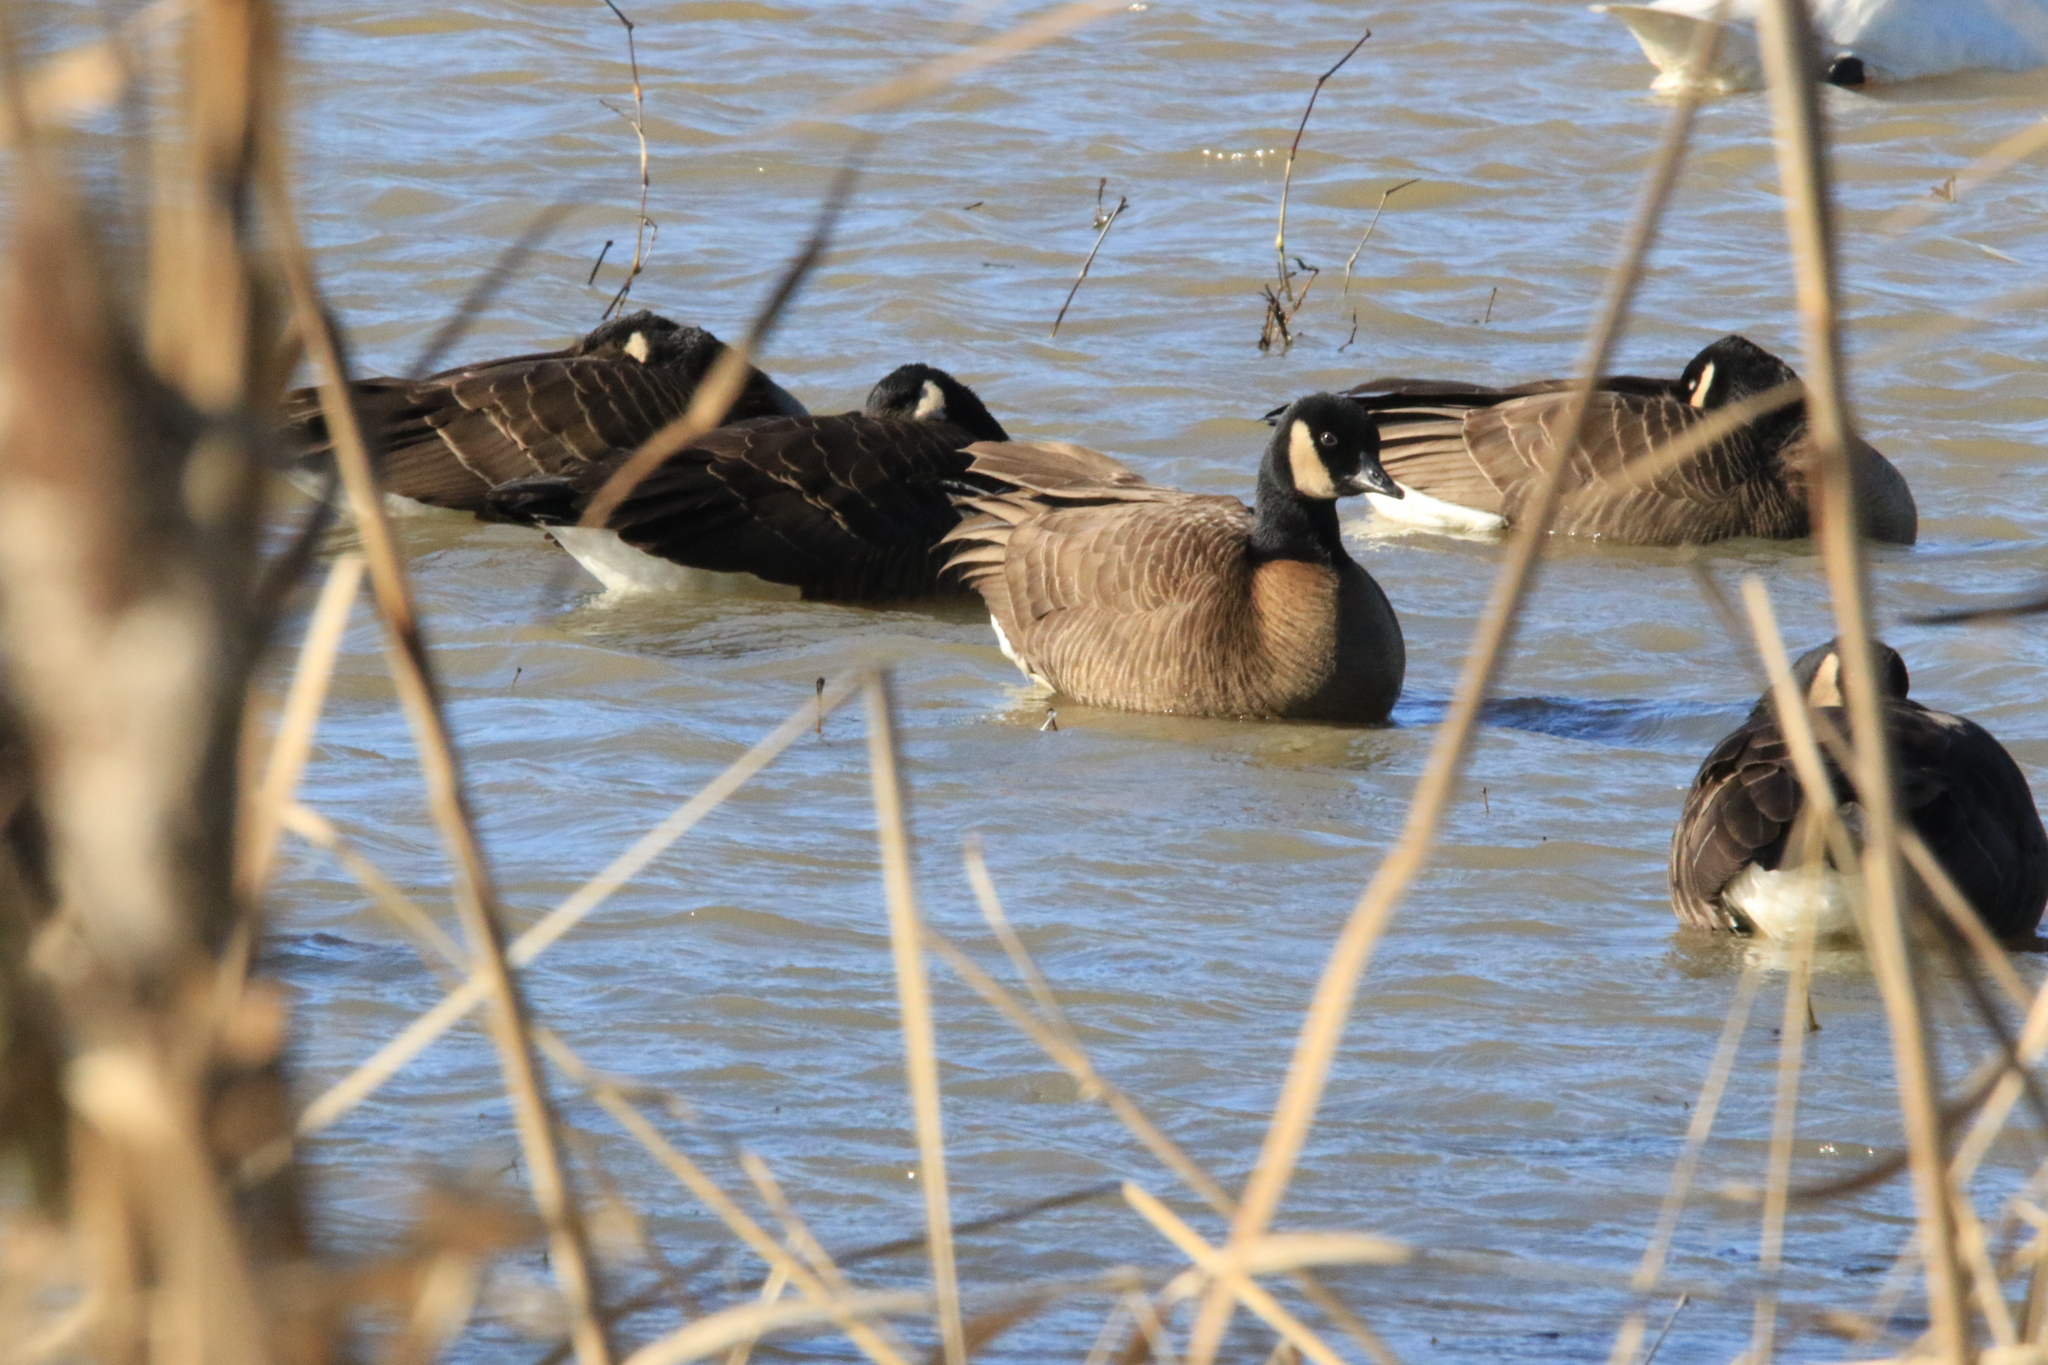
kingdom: Animalia
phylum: Chordata
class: Aves
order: Anseriformes
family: Anatidae
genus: Branta
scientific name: Branta hutchinsii
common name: Cackling goose
